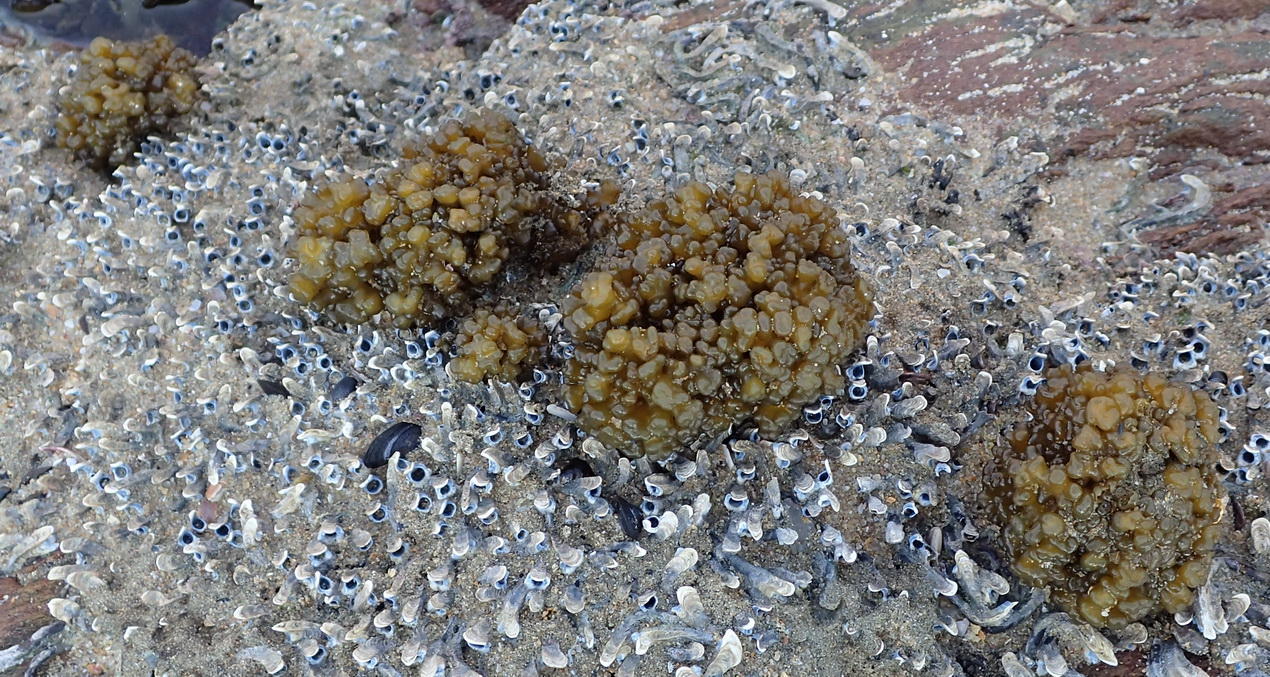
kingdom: Chromista
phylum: Ochrophyta
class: Phaeophyceae
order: Scytosiphonales
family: Scytosiphonaceae
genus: Iyengaria
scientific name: Iyengaria
